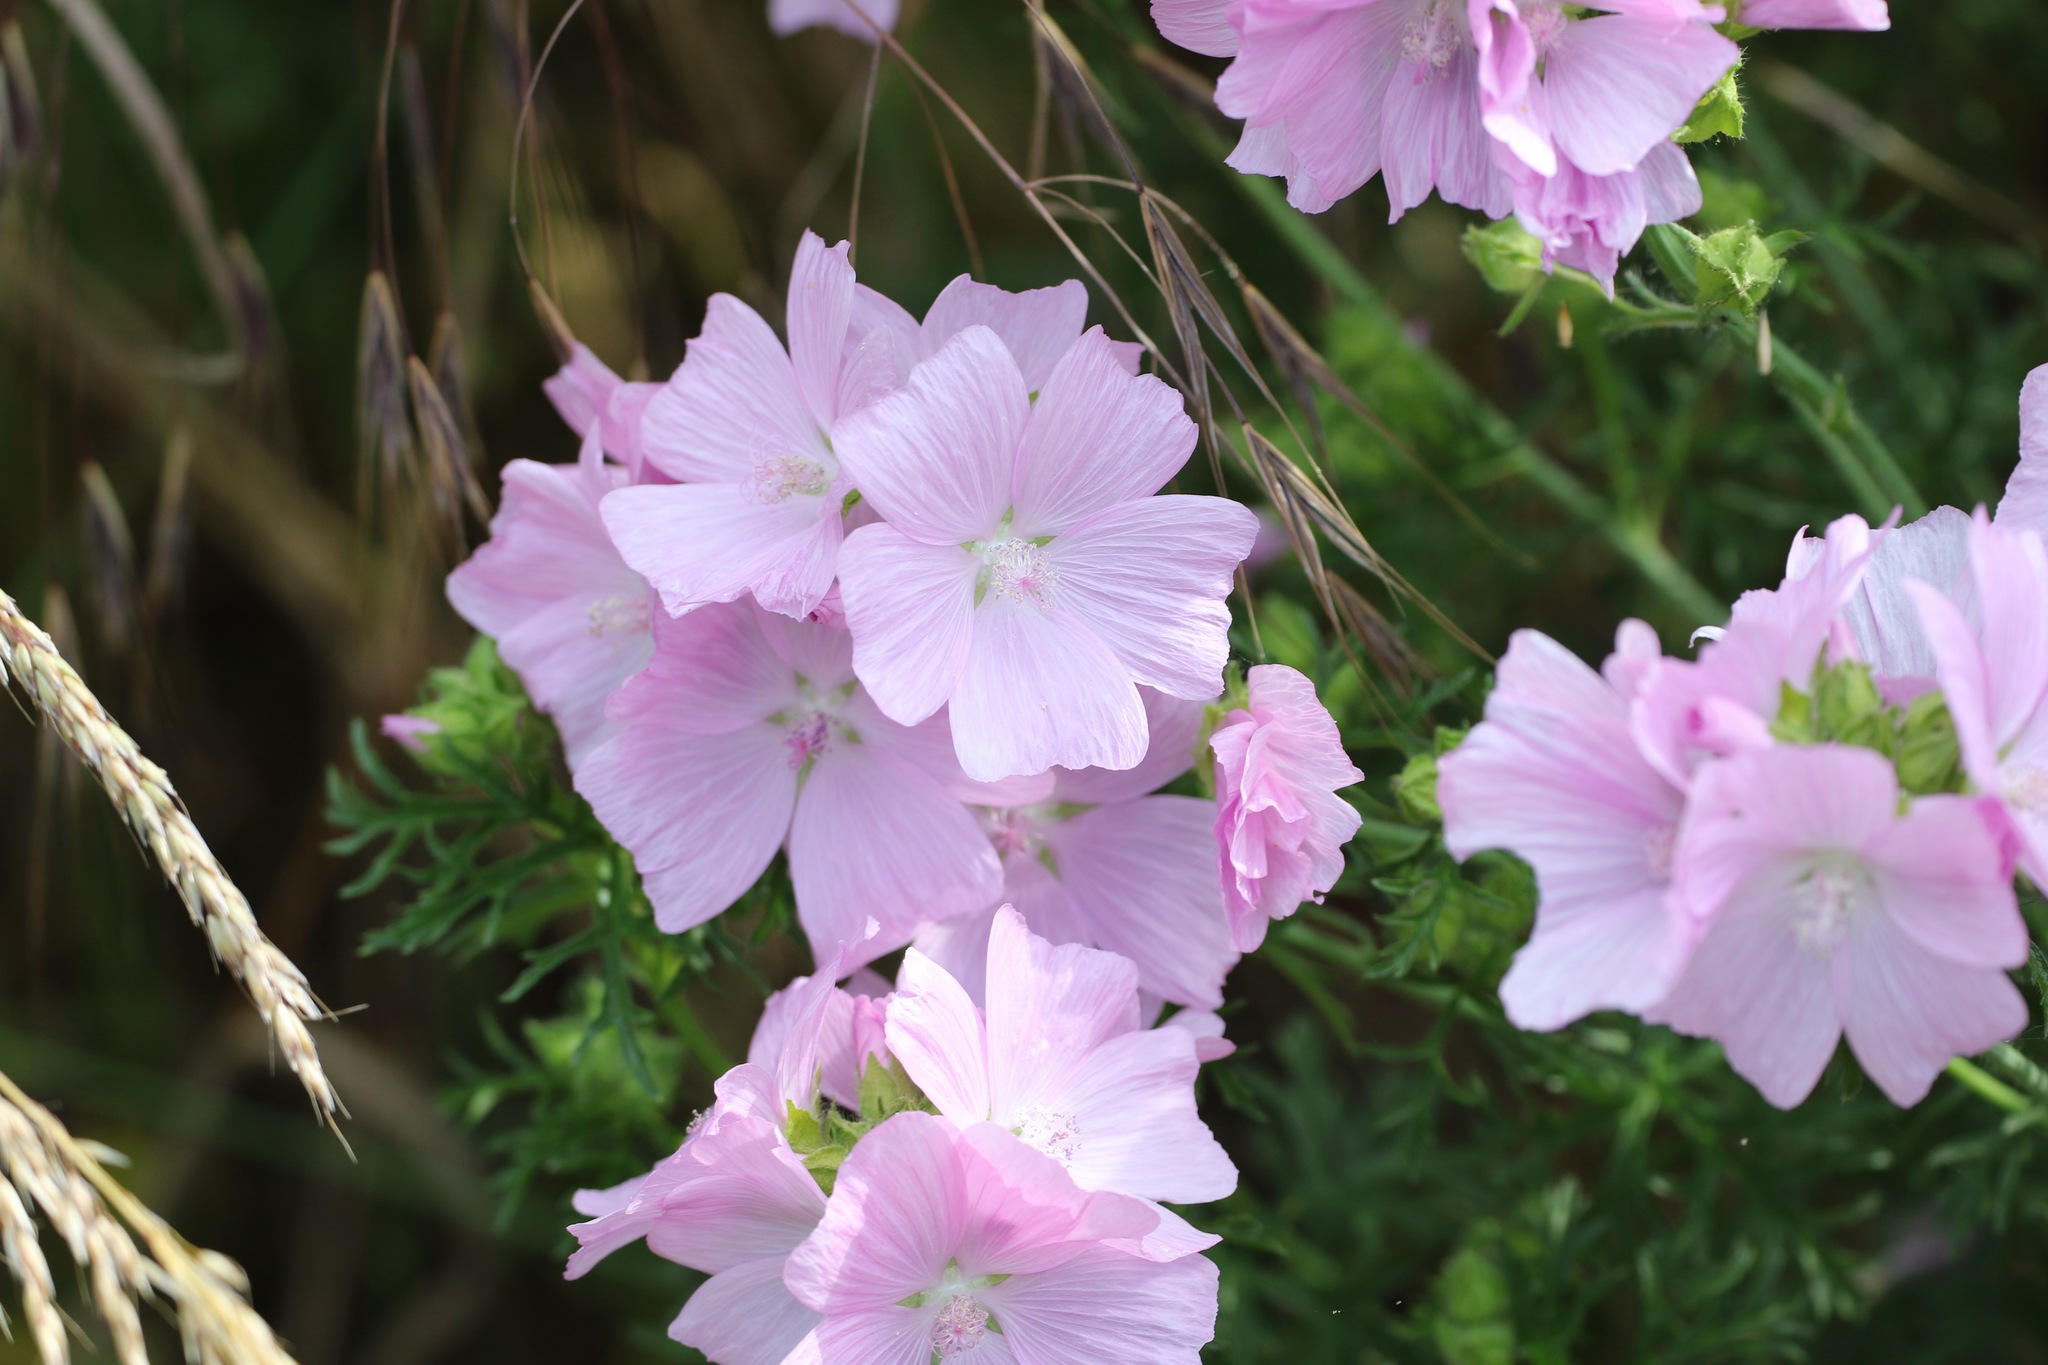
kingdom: Plantae
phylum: Tracheophyta
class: Magnoliopsida
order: Malvales
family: Malvaceae
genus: Malva
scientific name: Malva moschata
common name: Musk mallow
